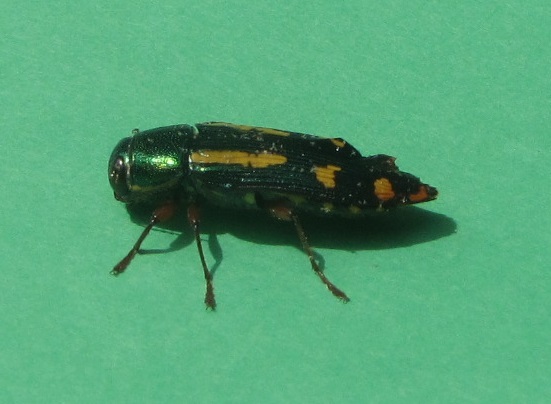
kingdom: Animalia
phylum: Arthropoda
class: Insecta
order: Coleoptera
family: Buprestidae
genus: Buprestis
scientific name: Buprestis rufipes
